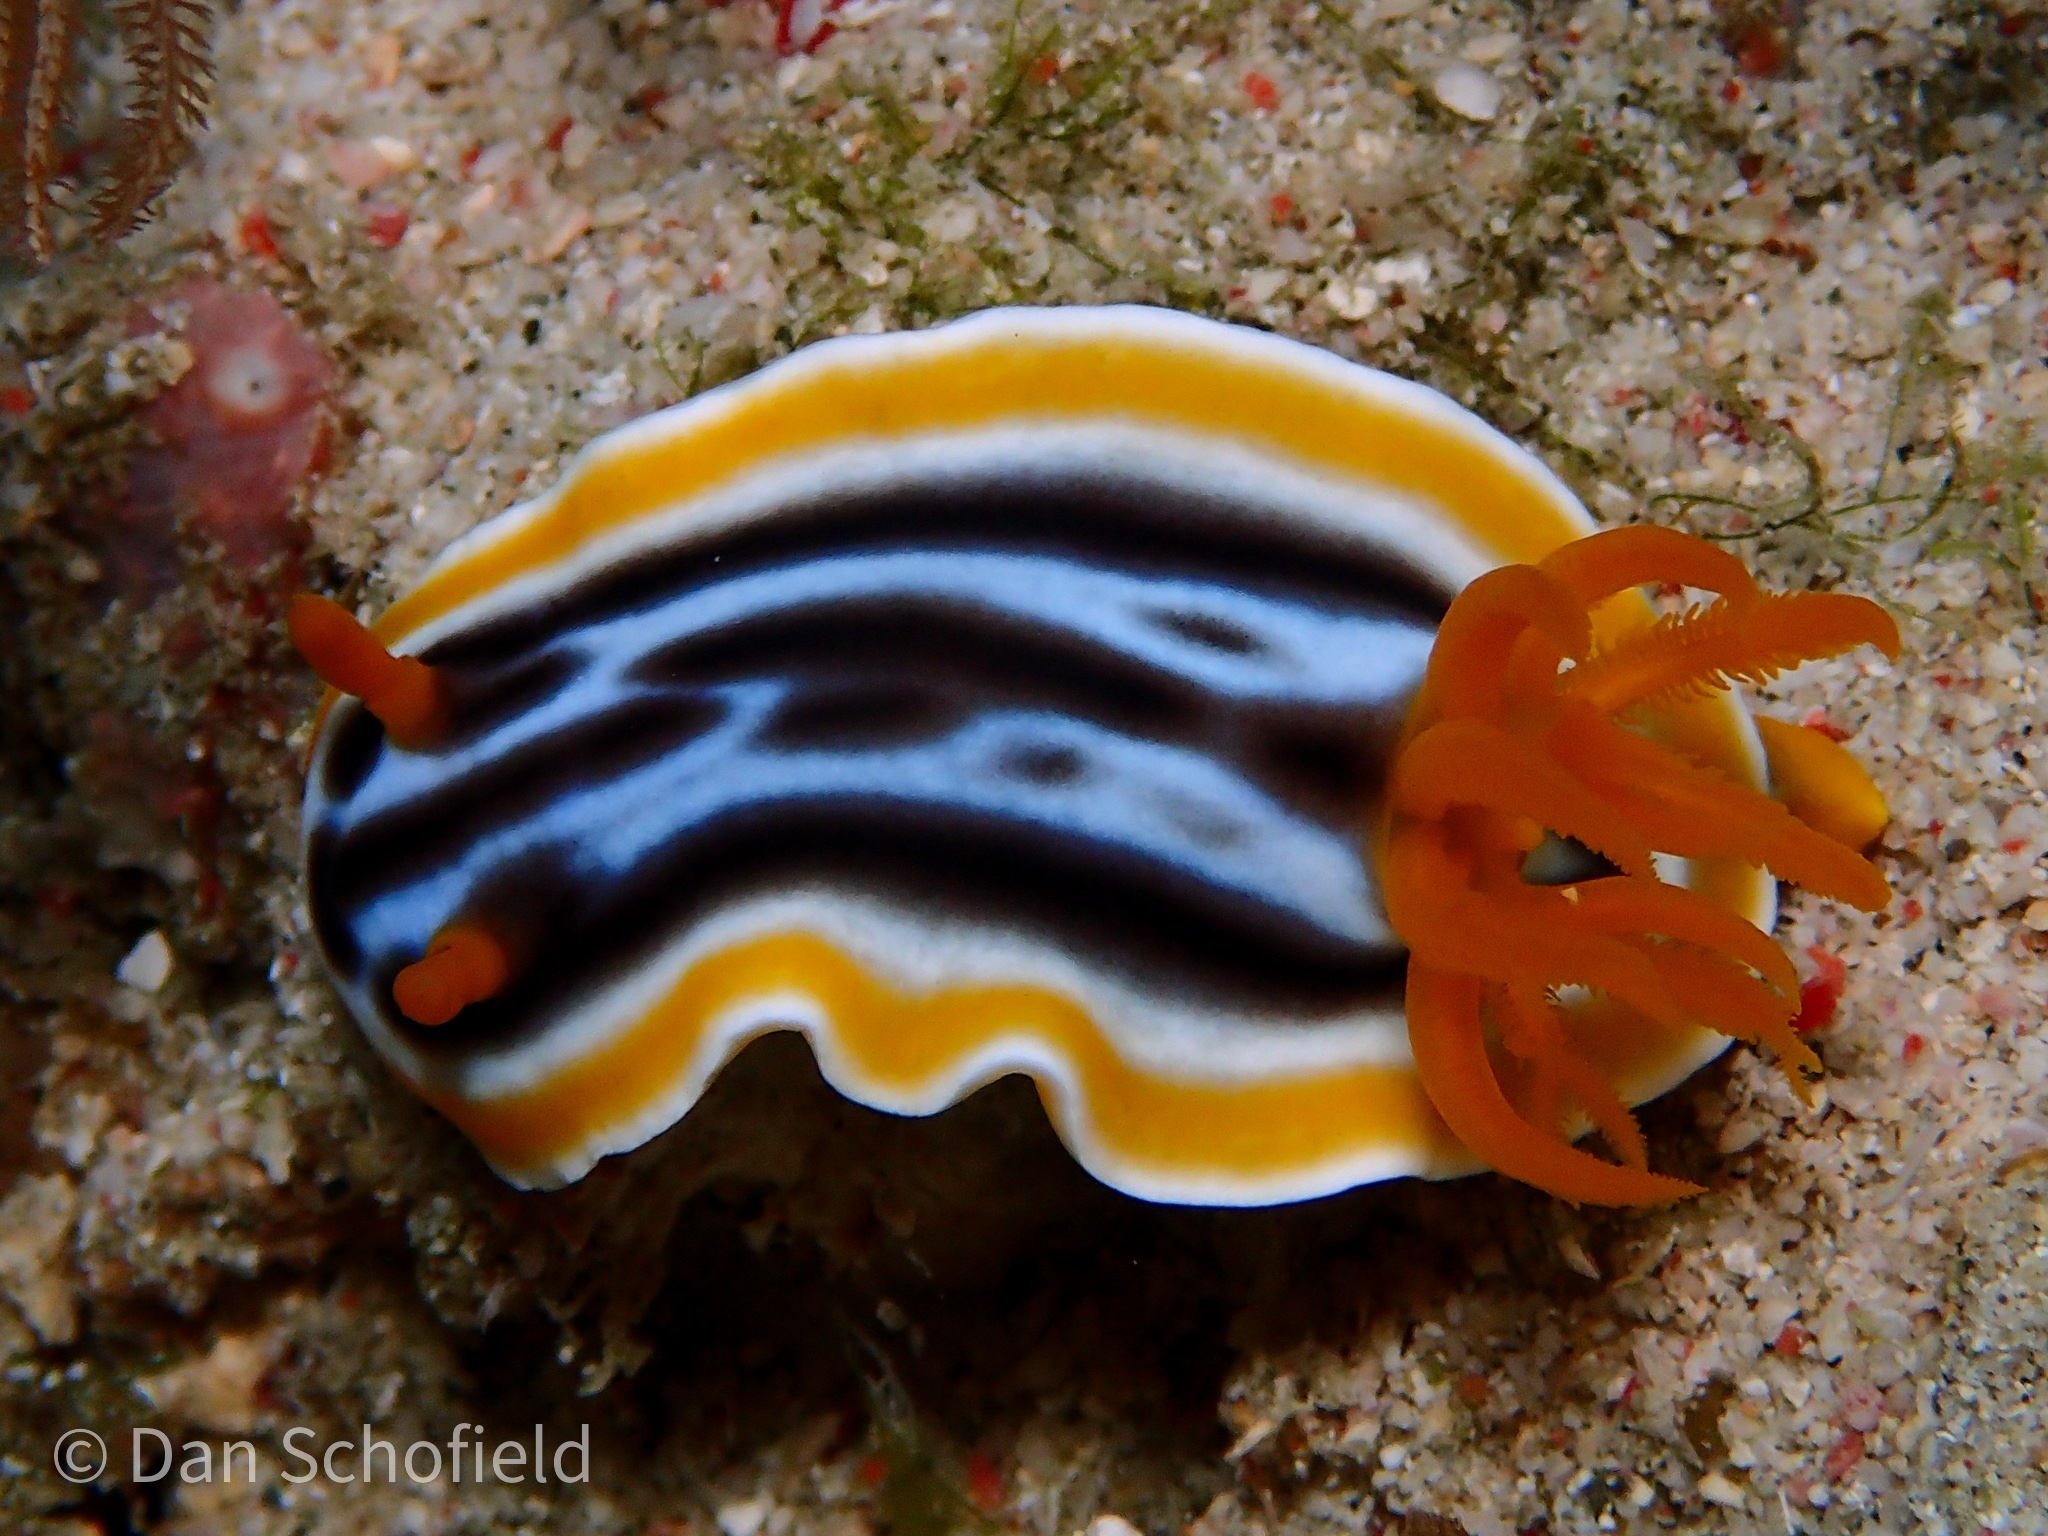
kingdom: Animalia
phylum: Mollusca
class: Gastropoda
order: Nudibranchia
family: Chromodorididae
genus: Chromodoris
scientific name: Chromodoris magnifica
